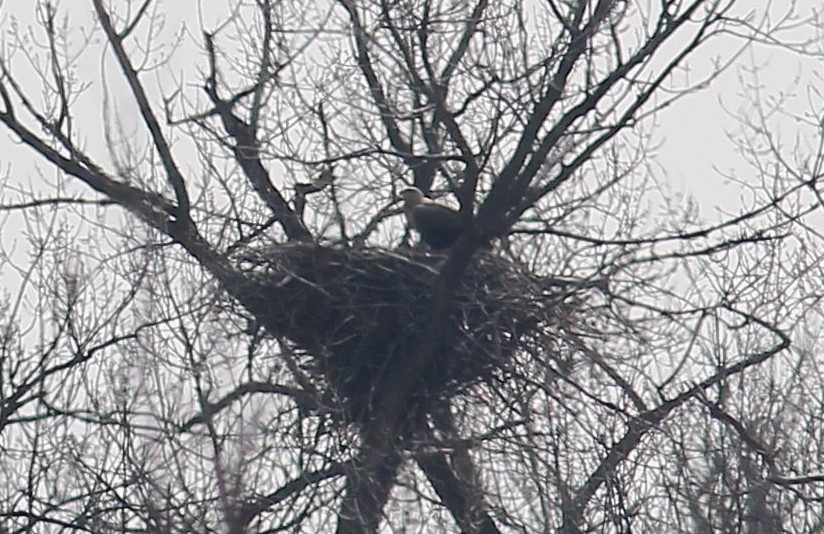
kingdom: Animalia
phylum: Chordata
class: Aves
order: Accipitriformes
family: Accipitridae
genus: Haliaeetus
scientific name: Haliaeetus albicilla
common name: White-tailed eagle
